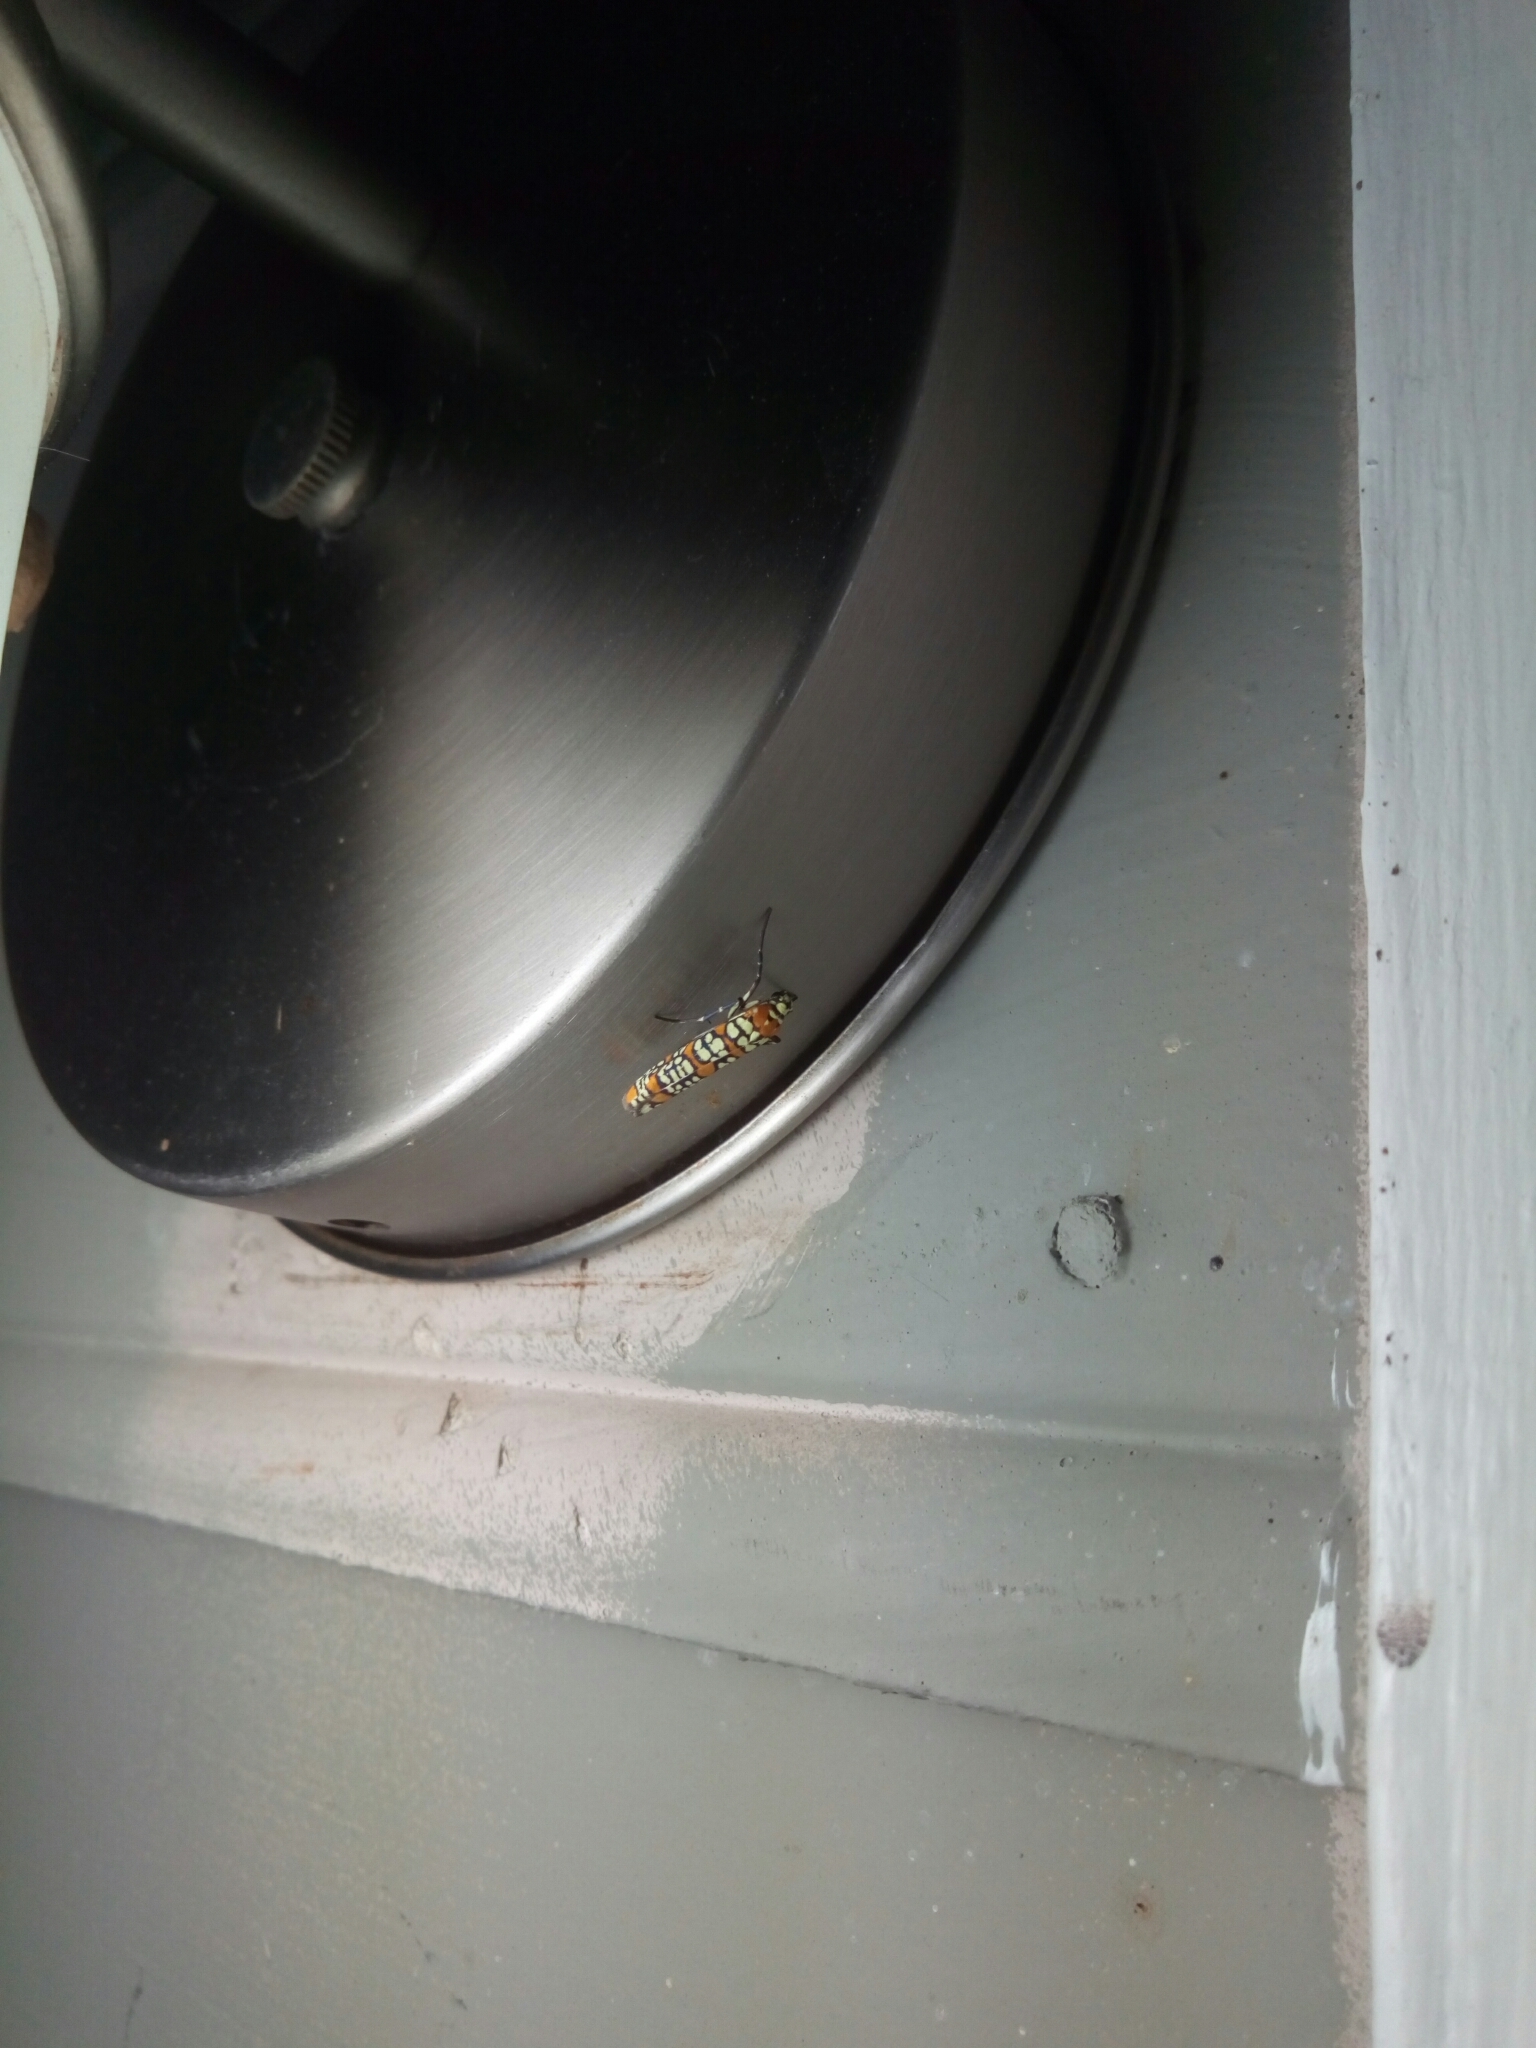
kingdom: Animalia
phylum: Arthropoda
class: Insecta
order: Lepidoptera
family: Attevidae
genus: Atteva
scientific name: Atteva punctella
